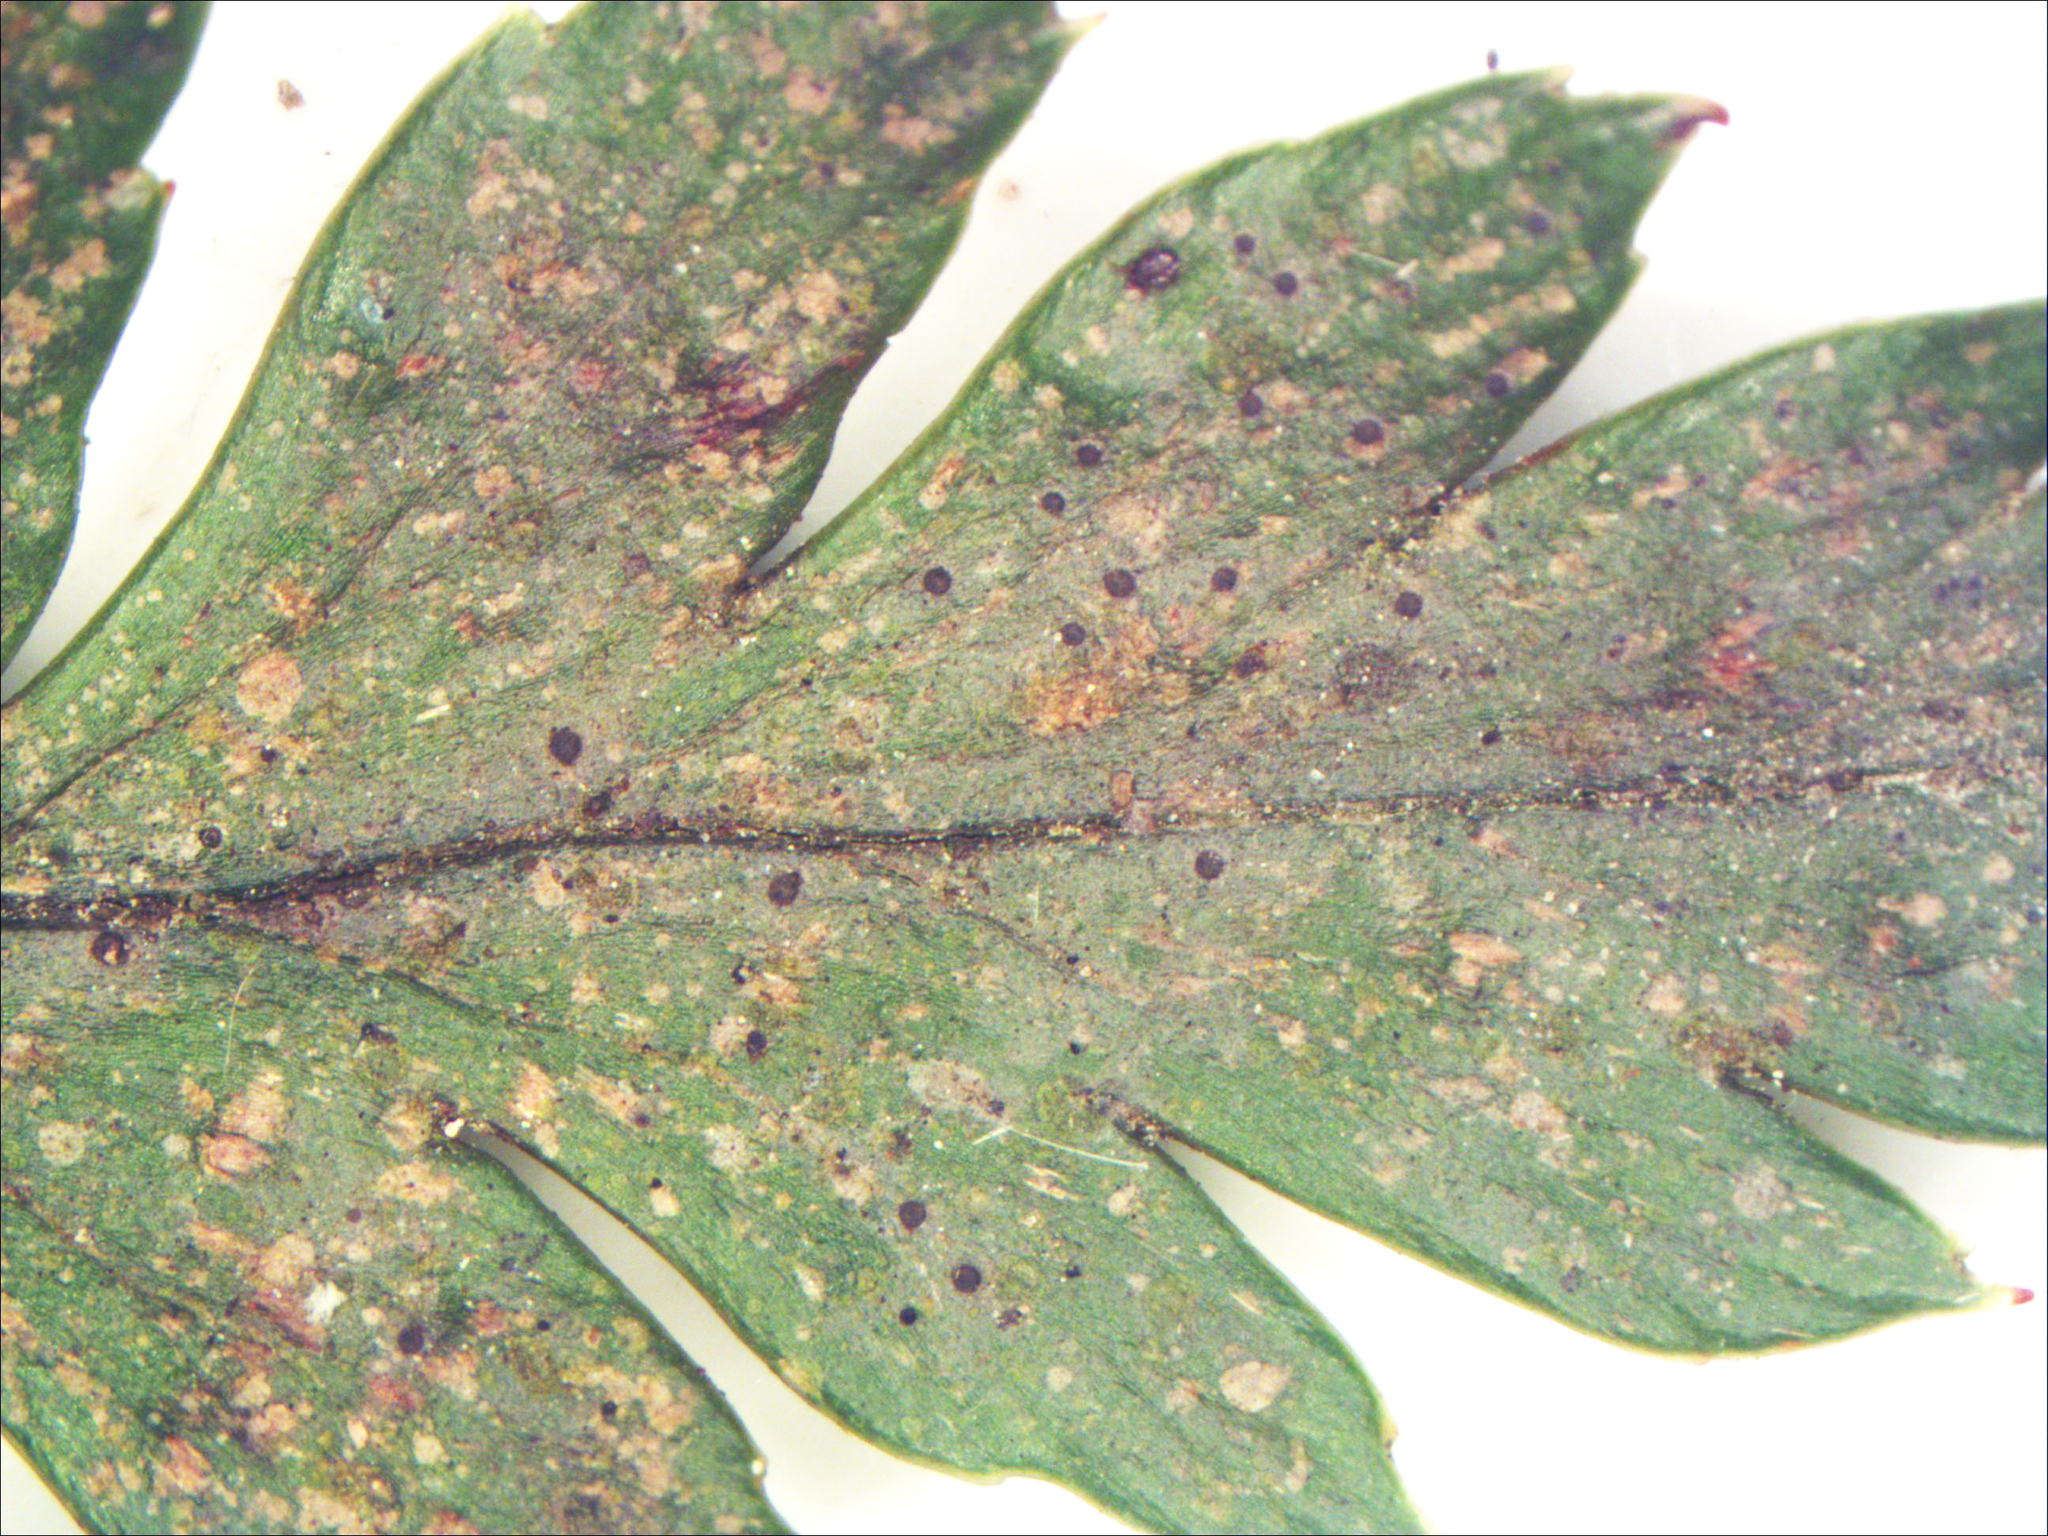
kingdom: Fungi
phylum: Ascomycota
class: Lecanoromycetes
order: Lecanorales
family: Byssolomataceae
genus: Tapellaria
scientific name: Tapellaria phyllophila
